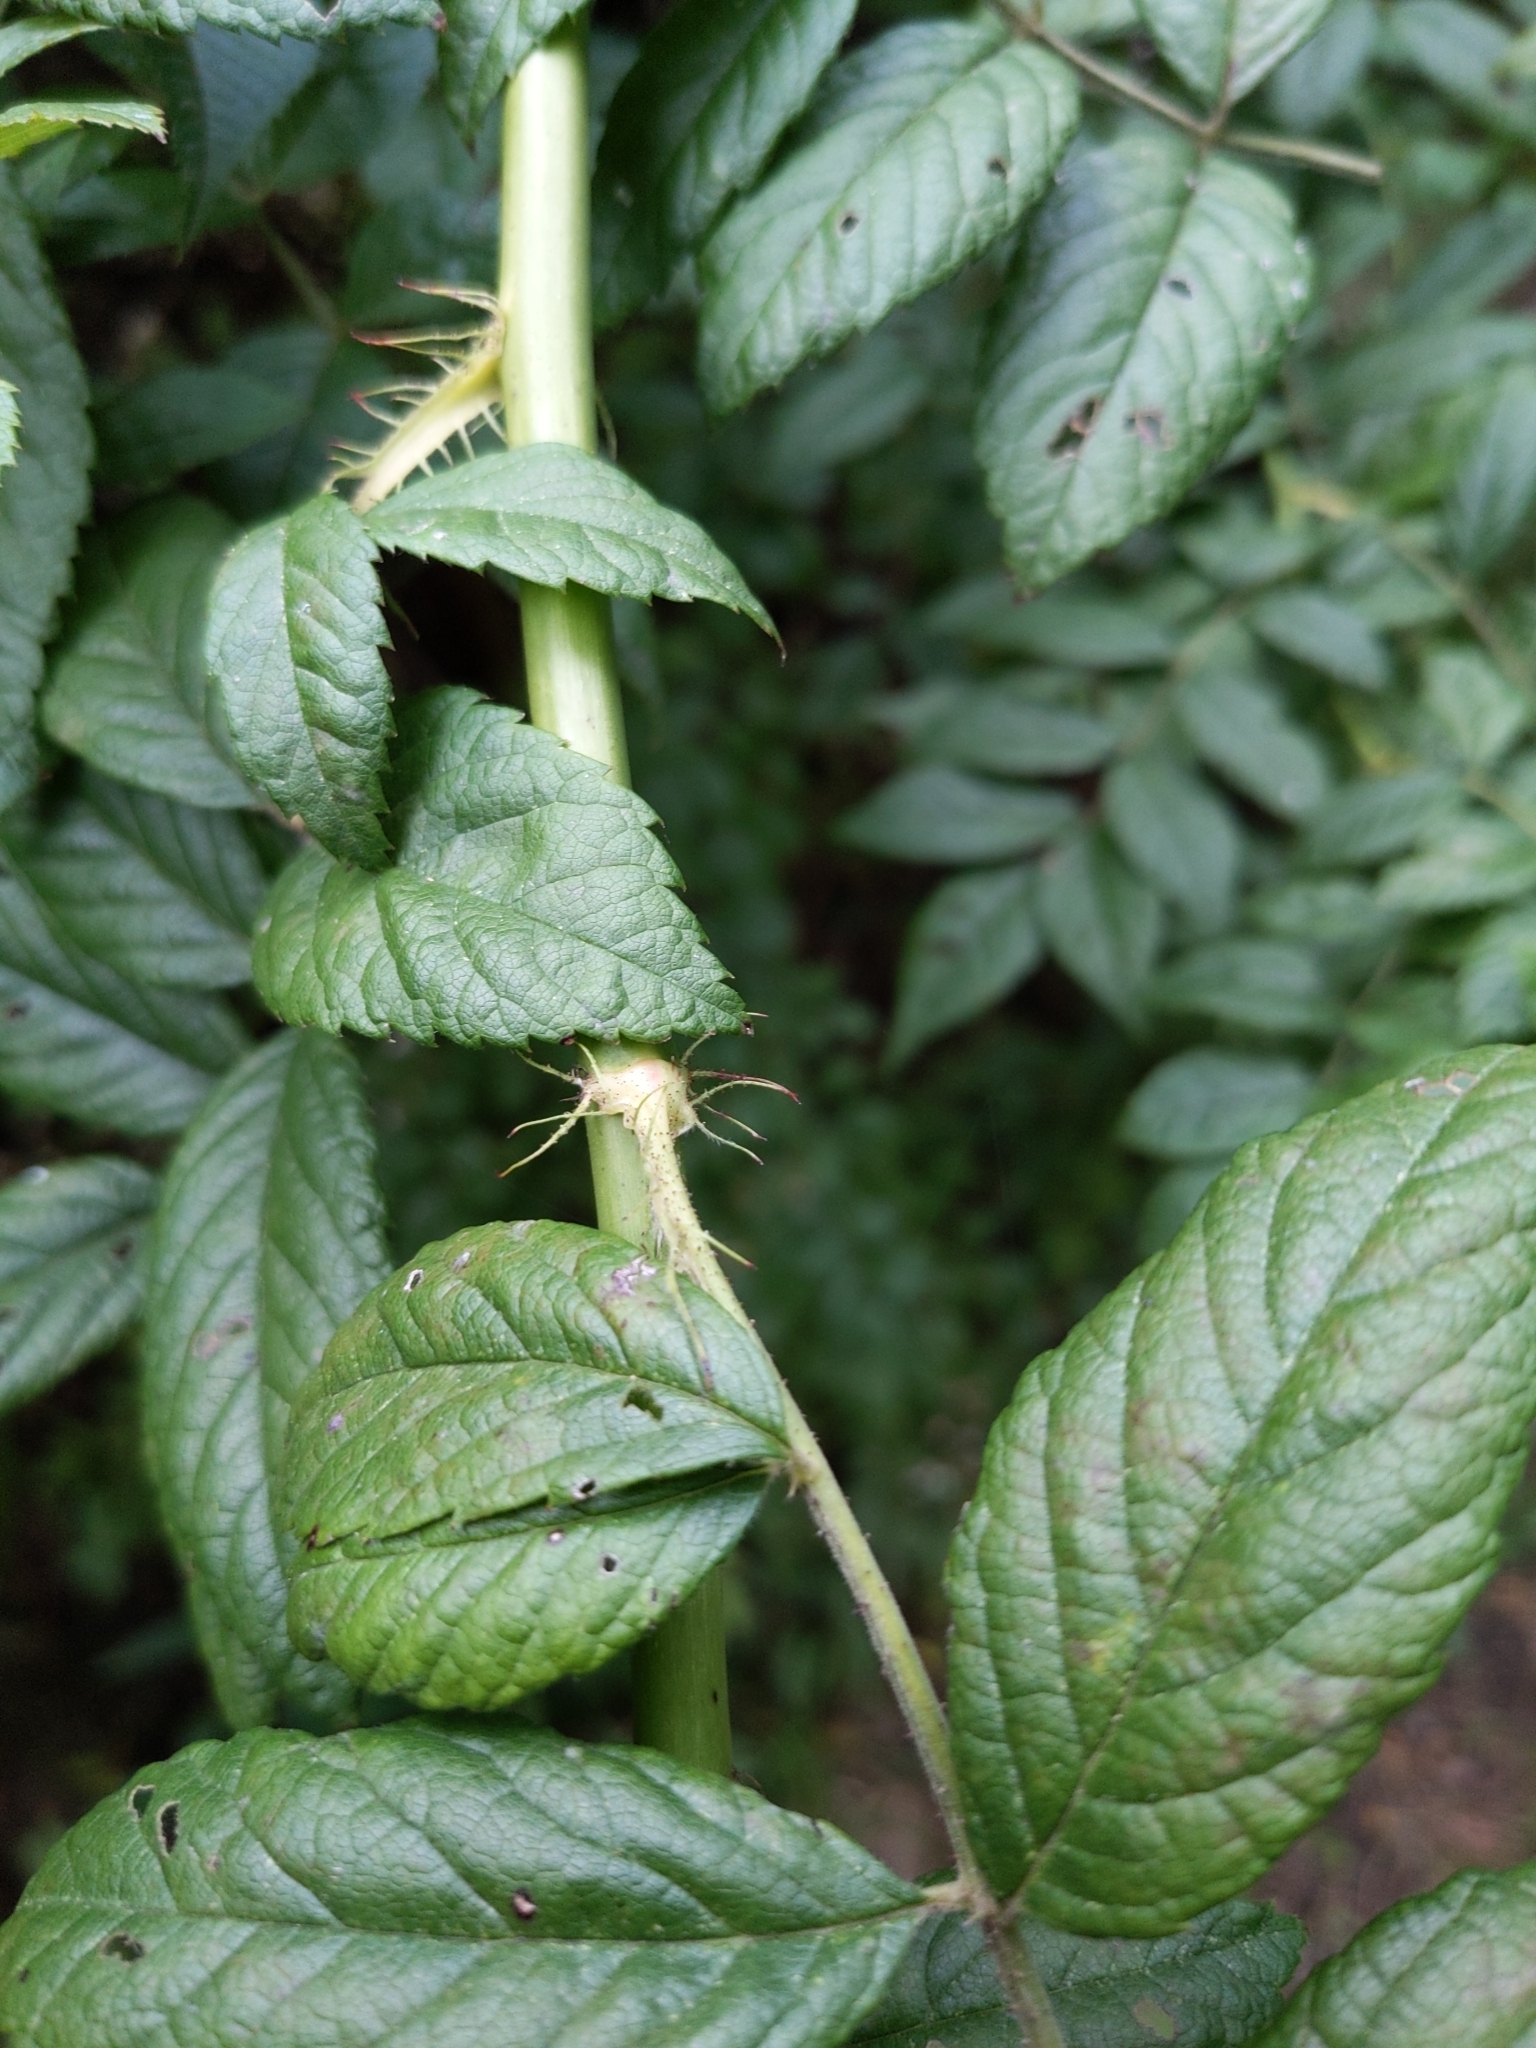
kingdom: Plantae
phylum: Tracheophyta
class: Magnoliopsida
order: Rosales
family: Rosaceae
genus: Rosa
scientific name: Rosa multiflora
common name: Multiflora rose
